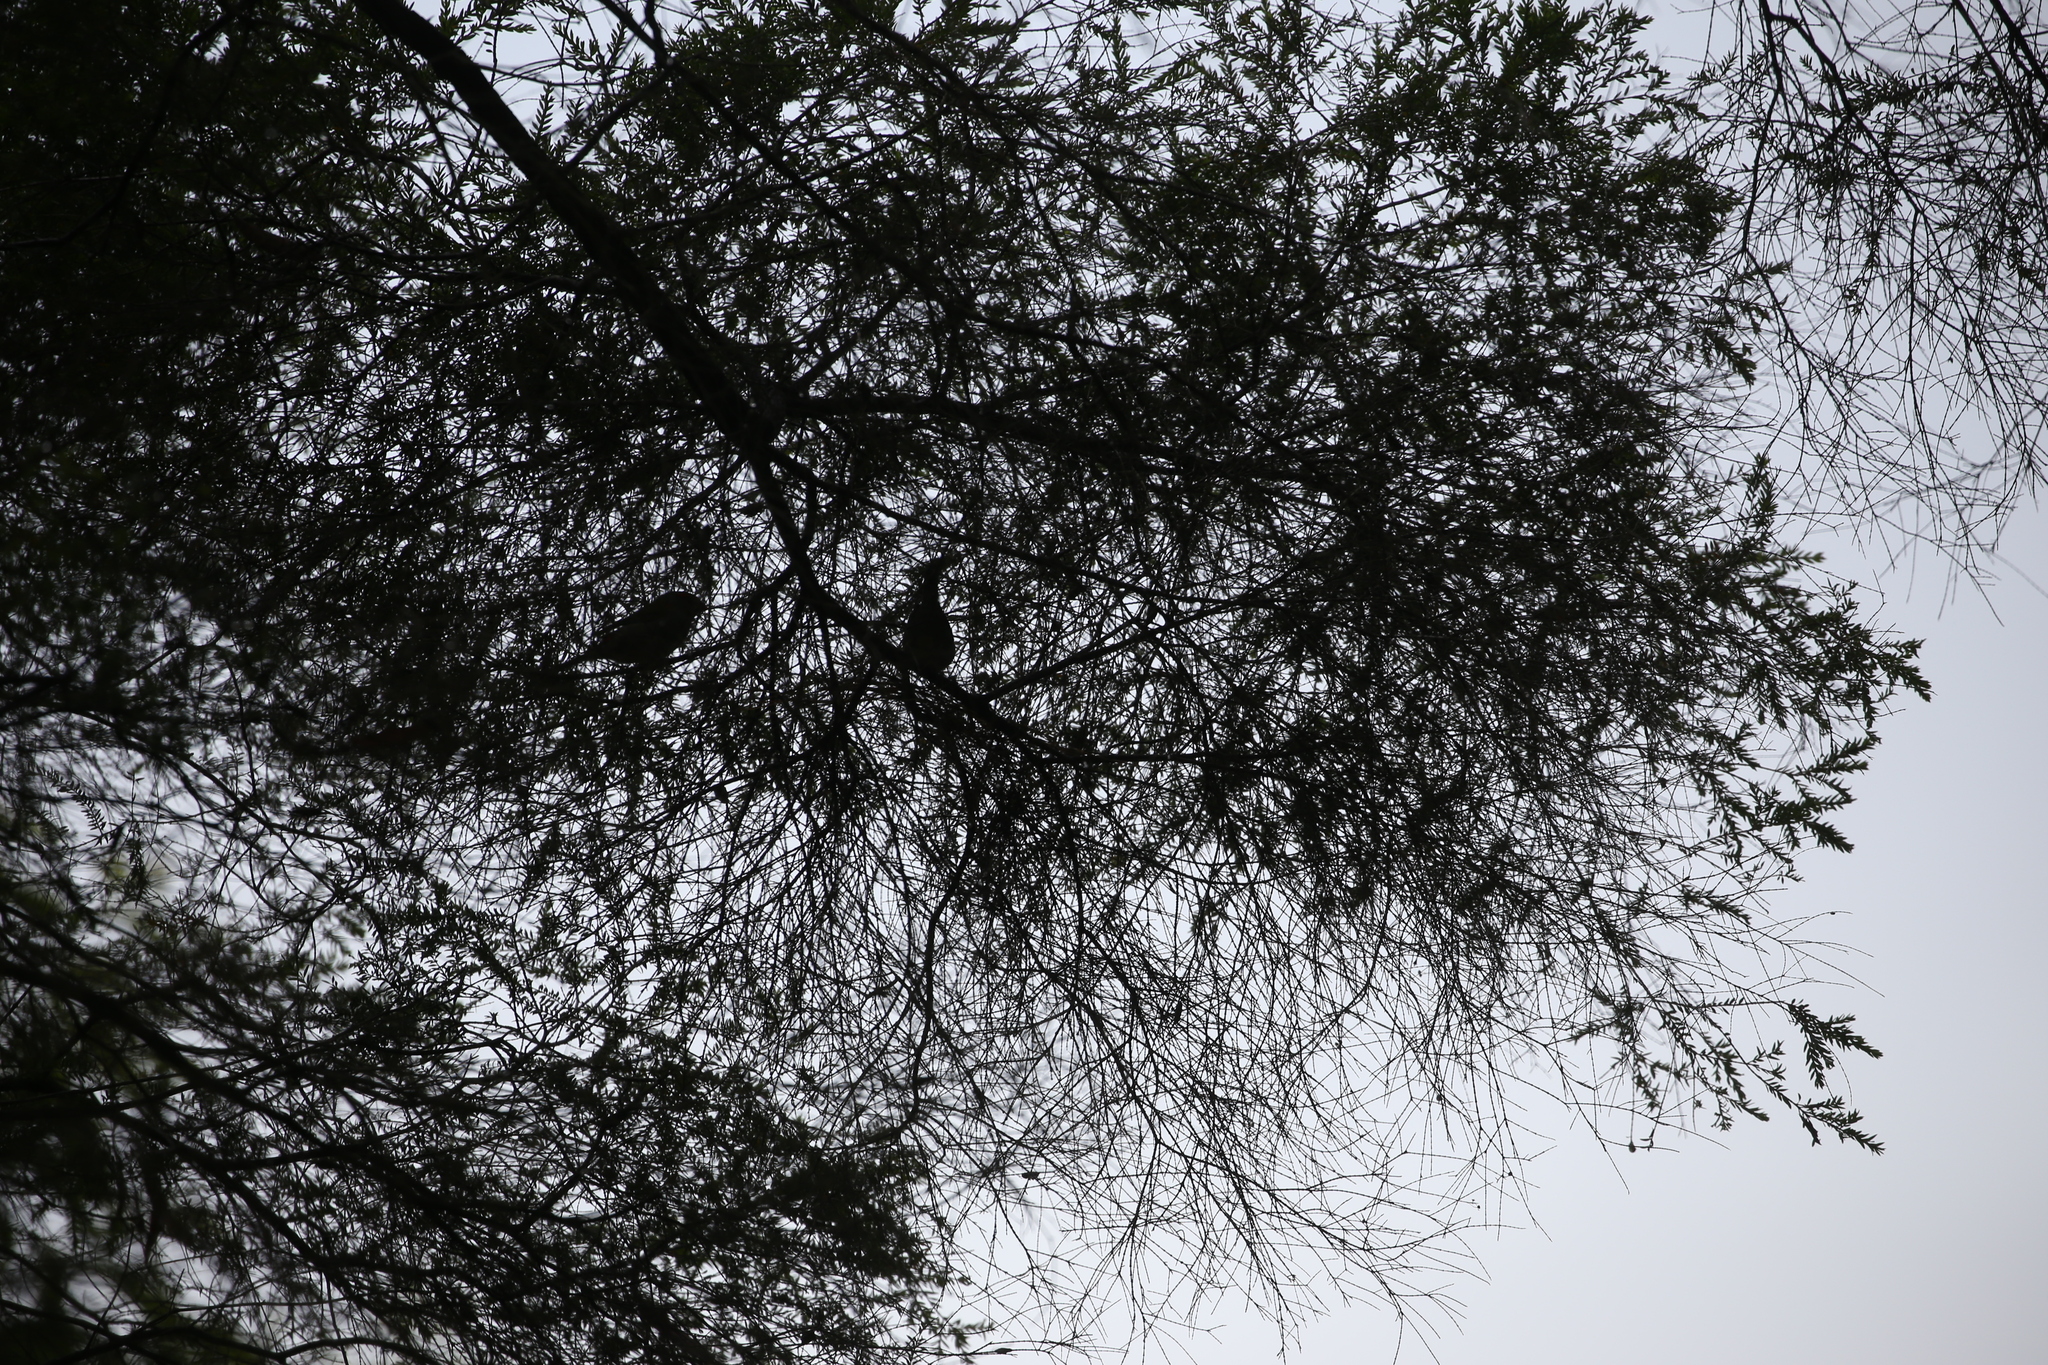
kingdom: Animalia
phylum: Chordata
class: Aves
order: Passeriformes
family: Estrildidae
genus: Neochmia
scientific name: Neochmia temporalis
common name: Red-browed finch
